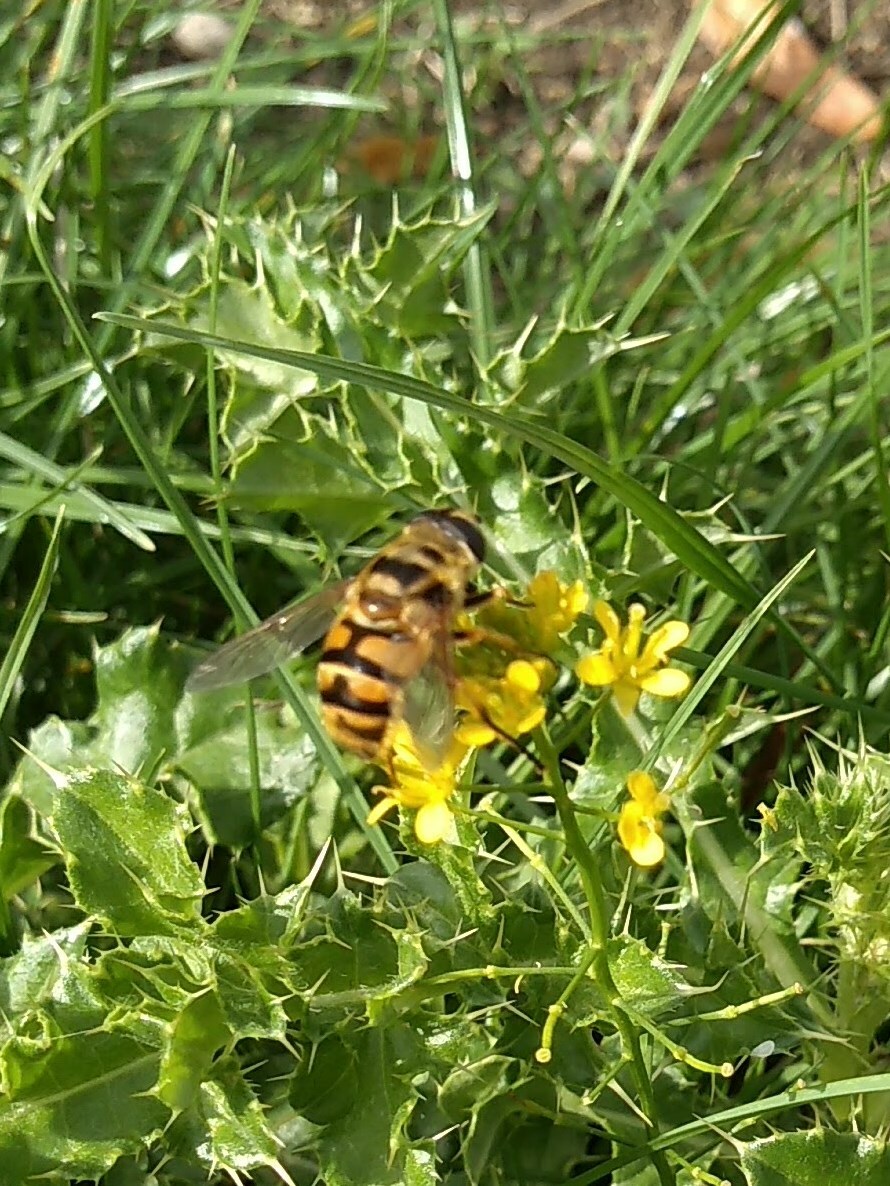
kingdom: Animalia
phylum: Arthropoda
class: Insecta
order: Diptera
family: Syrphidae
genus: Myathropa
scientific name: Myathropa florea
